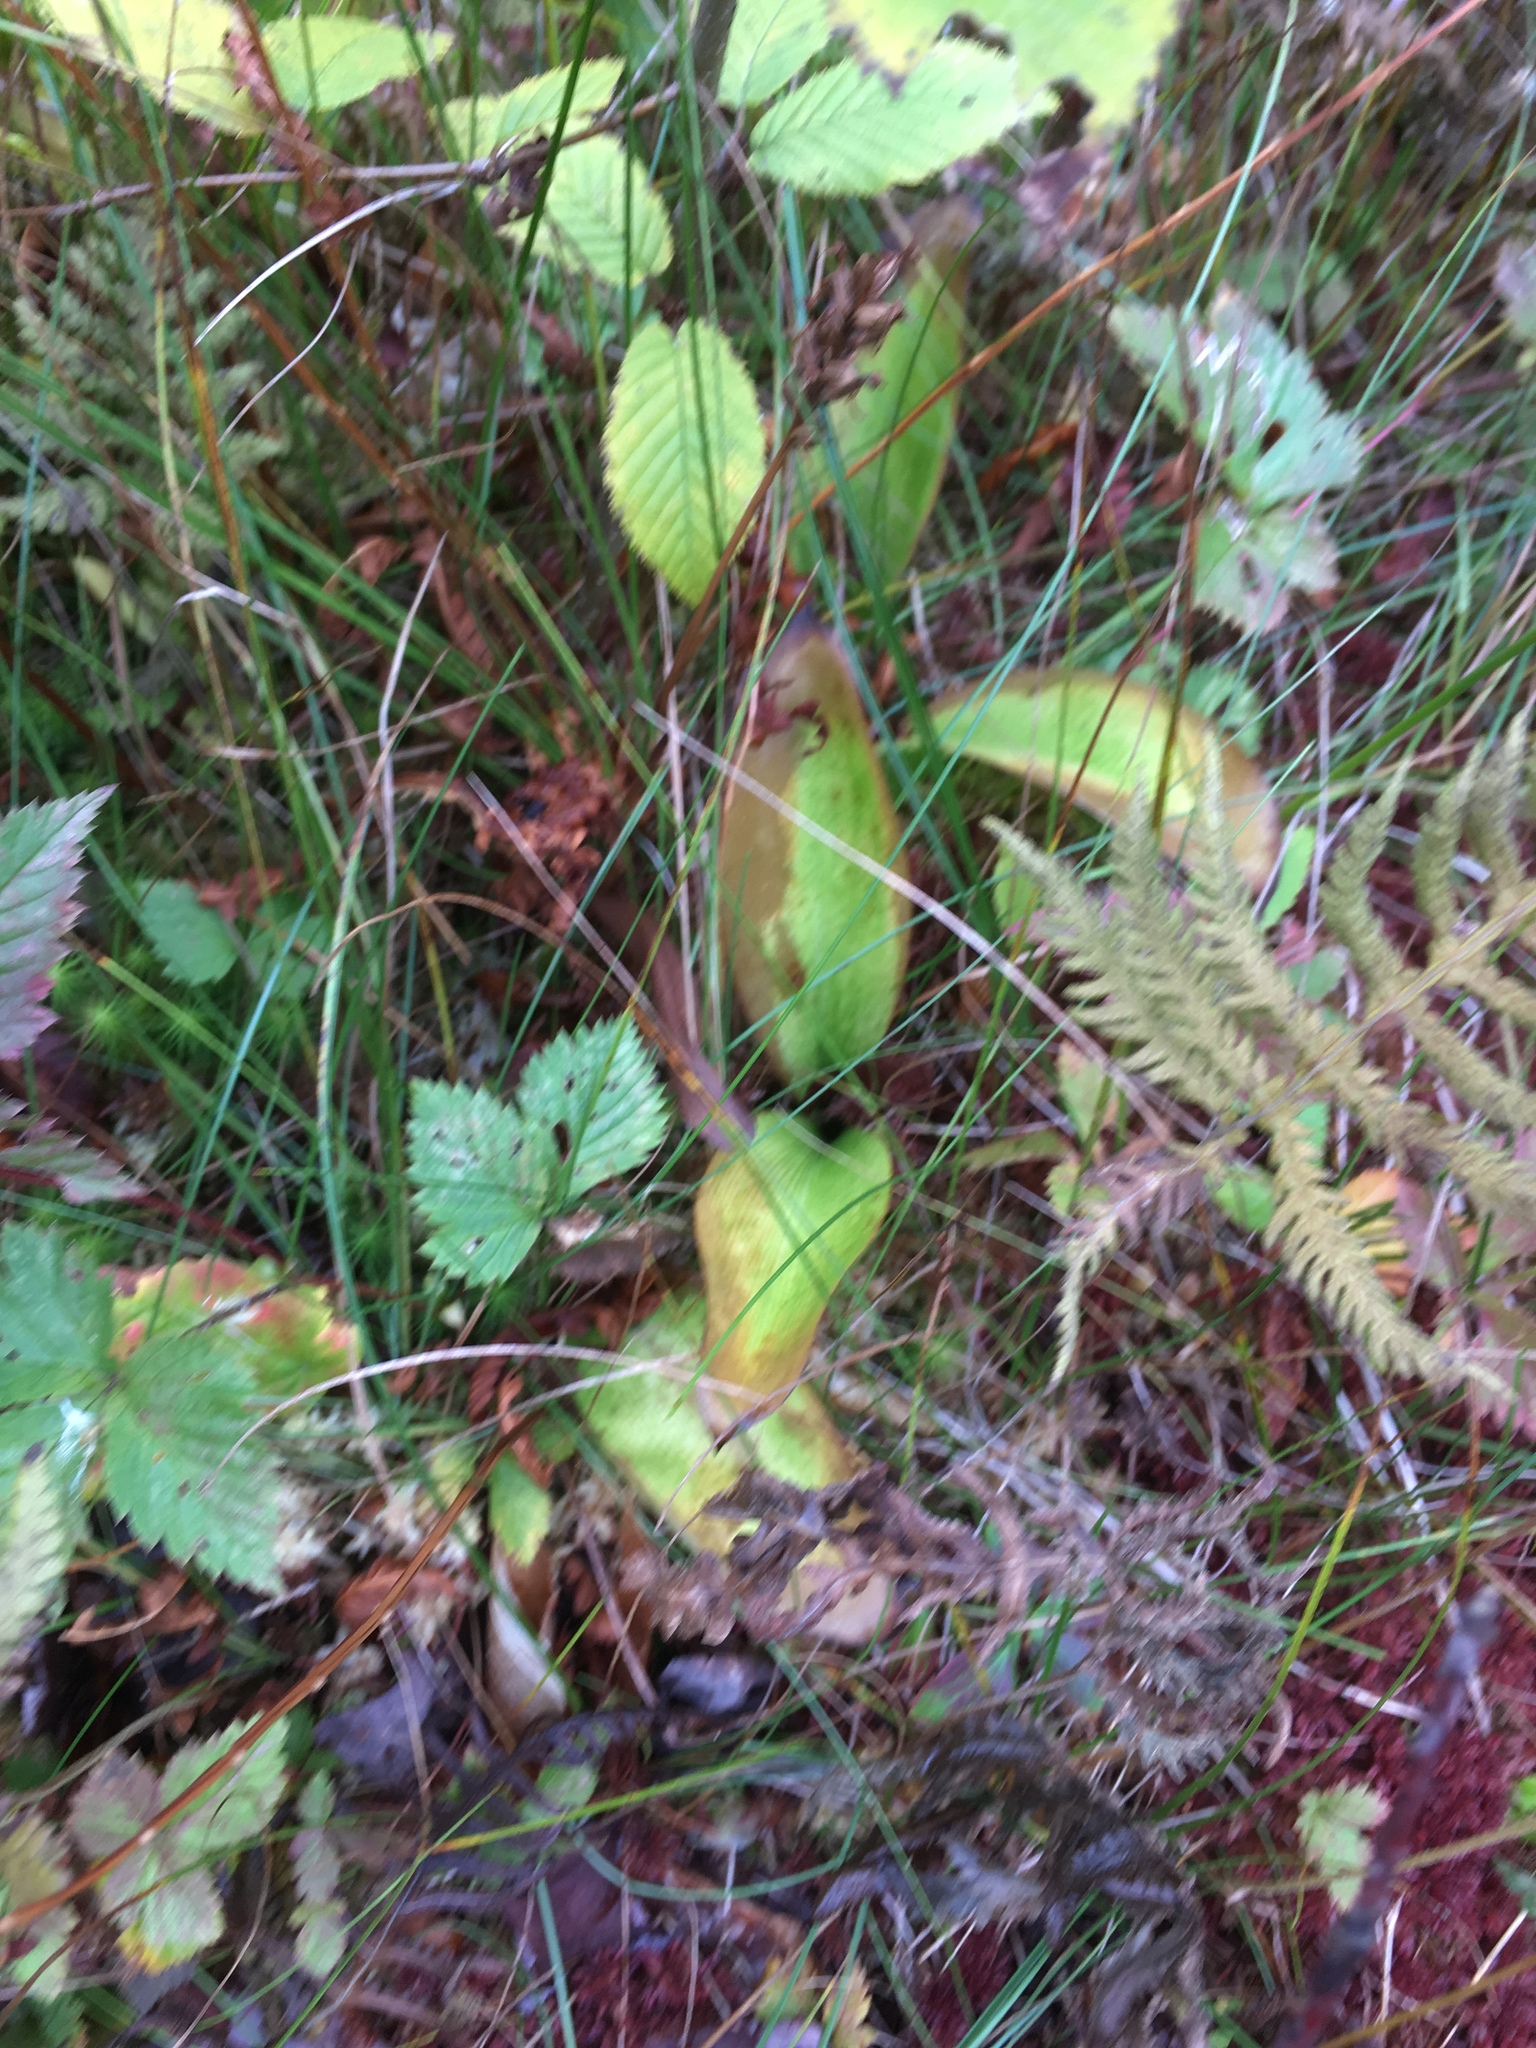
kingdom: Plantae
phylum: Tracheophyta
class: Liliopsida
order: Liliales
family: Liliaceae
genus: Clintonia
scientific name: Clintonia borealis
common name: Yellow clintonia
